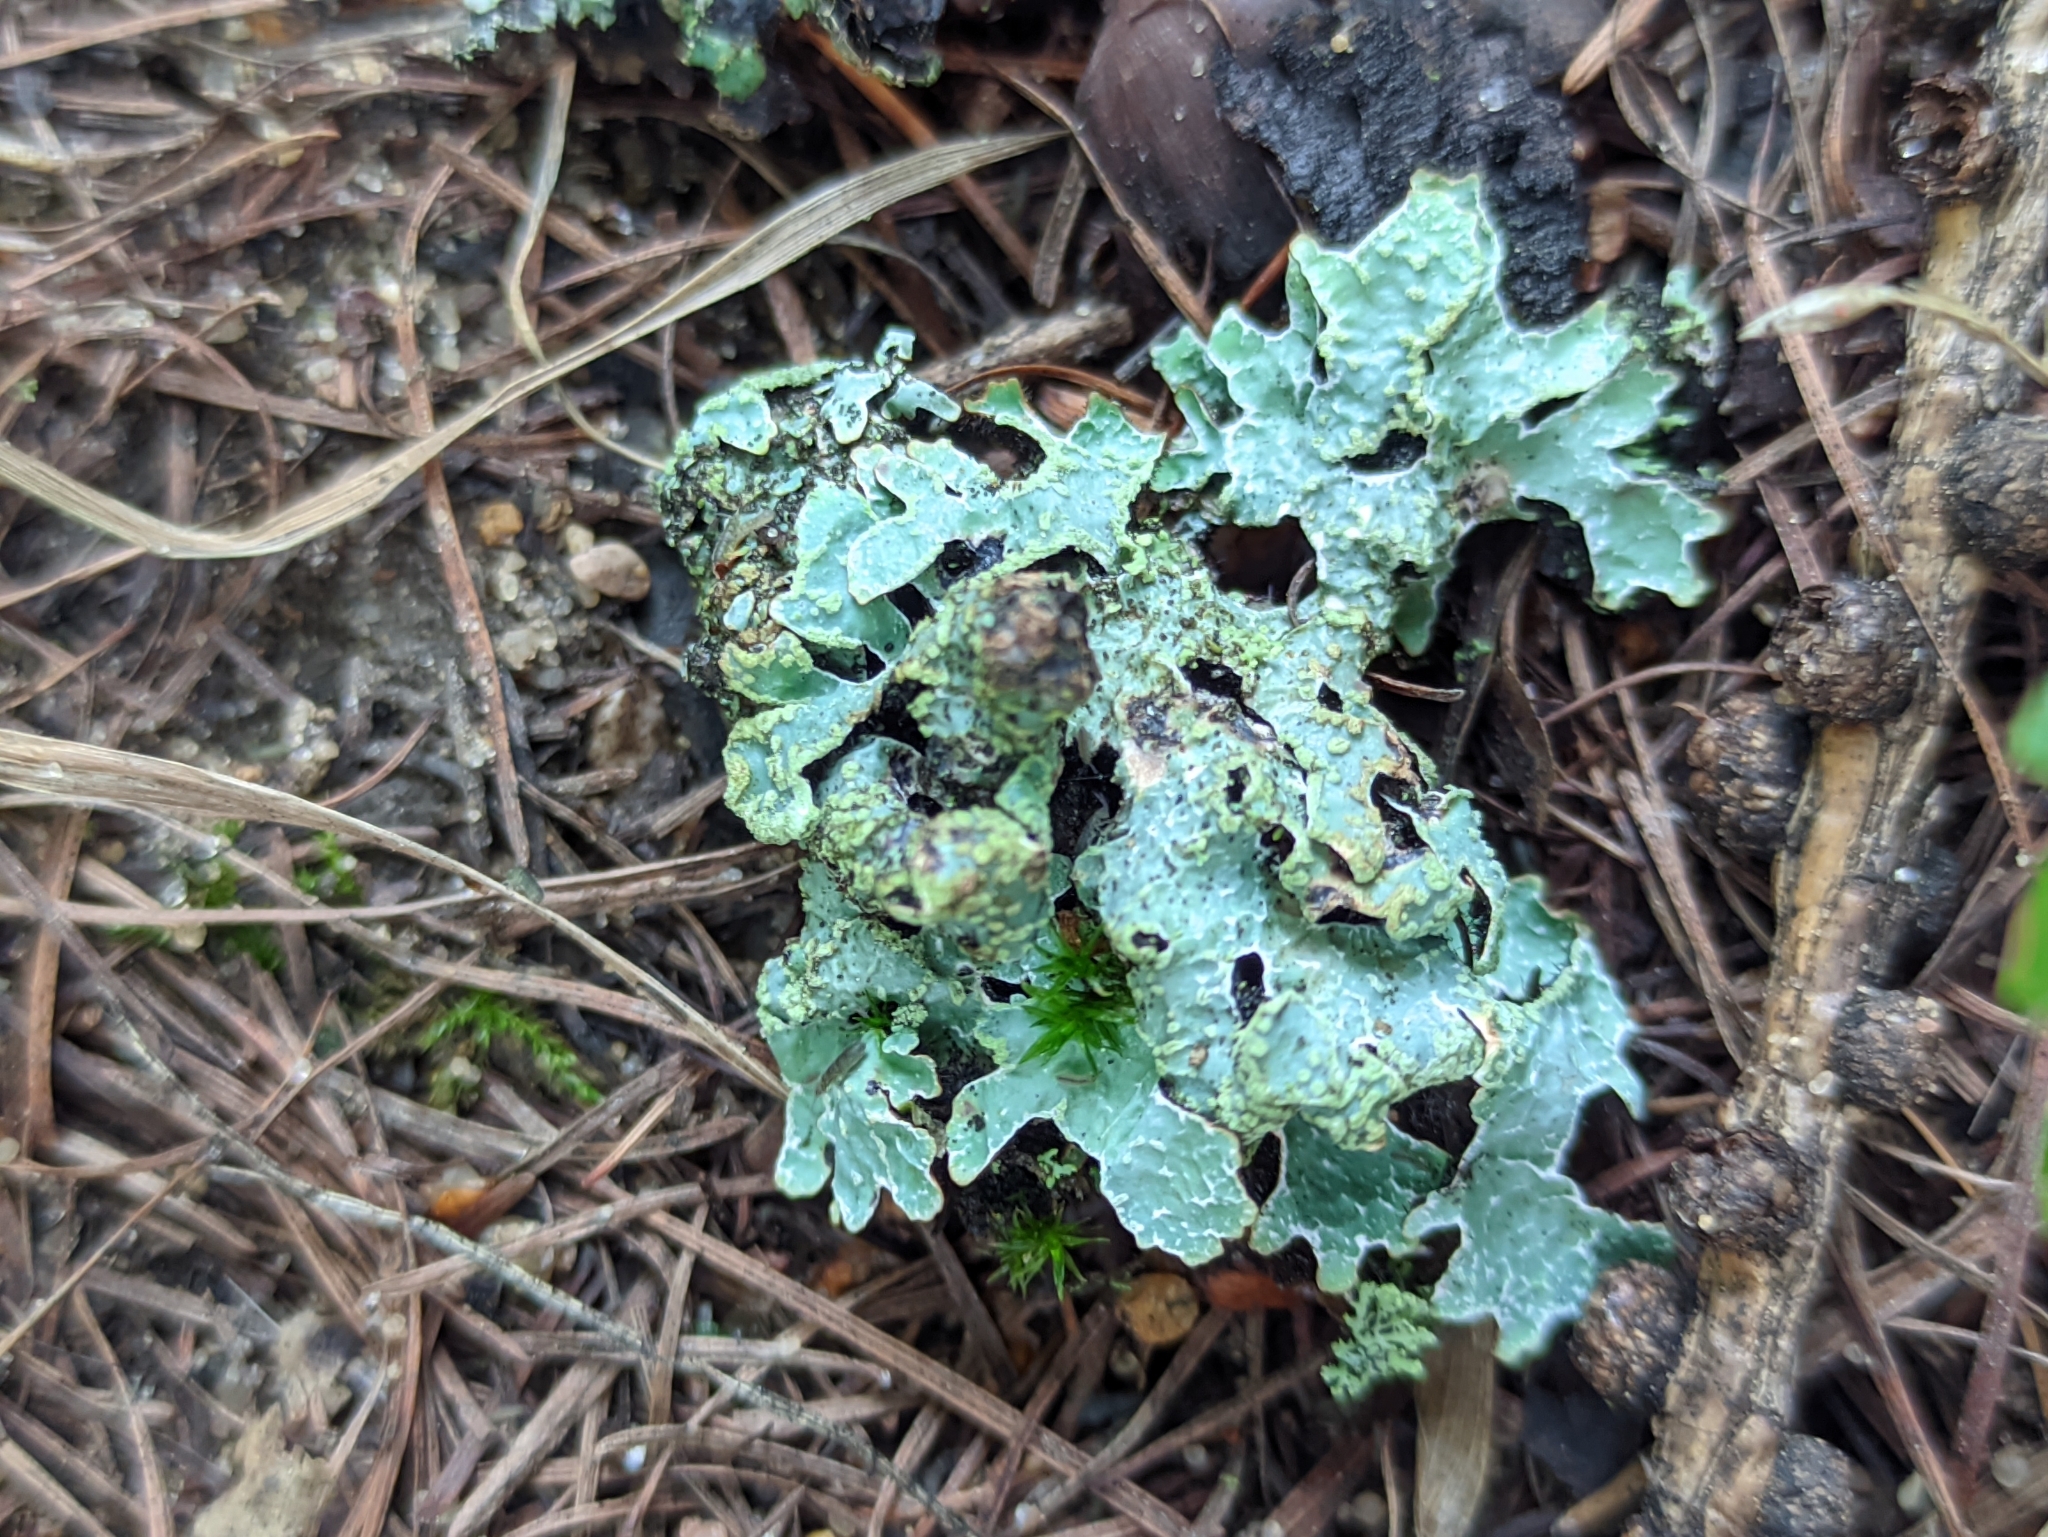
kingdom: Fungi
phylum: Ascomycota
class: Lecanoromycetes
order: Lecanorales
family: Parmeliaceae
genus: Parmelia
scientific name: Parmelia sulcata
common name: Netted shield lichen
